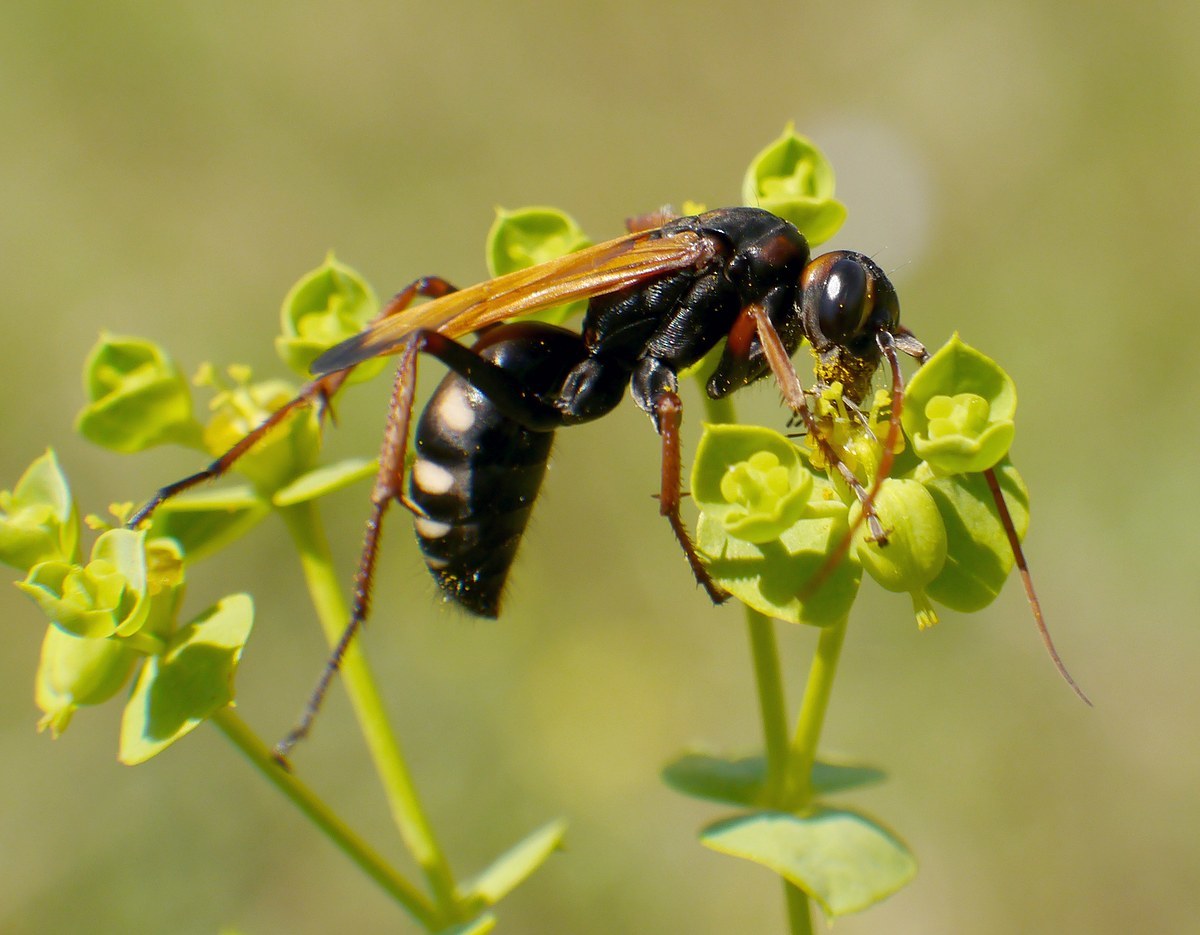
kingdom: Animalia
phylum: Arthropoda
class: Insecta
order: Hymenoptera
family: Pompilidae
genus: Cryptocheilus
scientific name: Cryptocheilus octomaculatus
